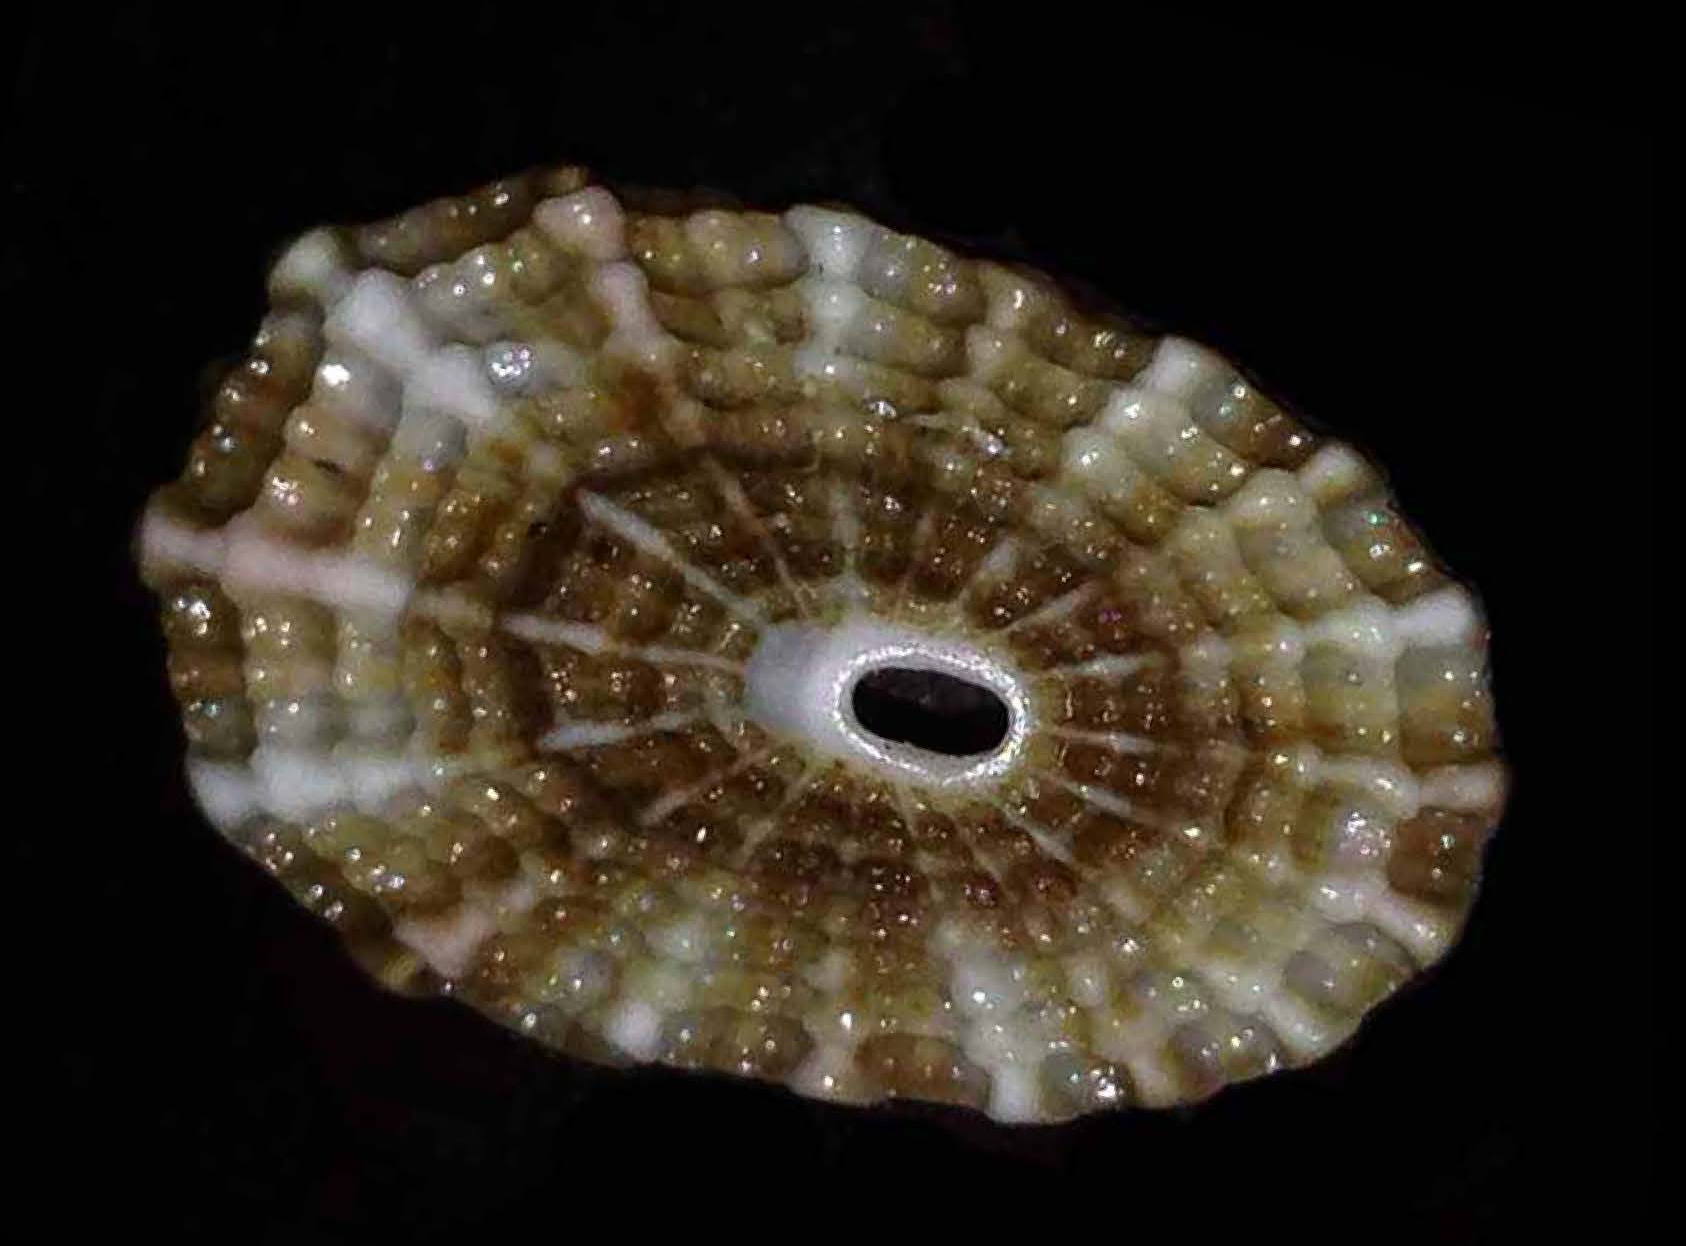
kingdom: Animalia
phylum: Mollusca
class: Gastropoda
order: Lepetellida
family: Fissurellidae
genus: Diodora
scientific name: Diodora graeca
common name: Common keyhole limpet
